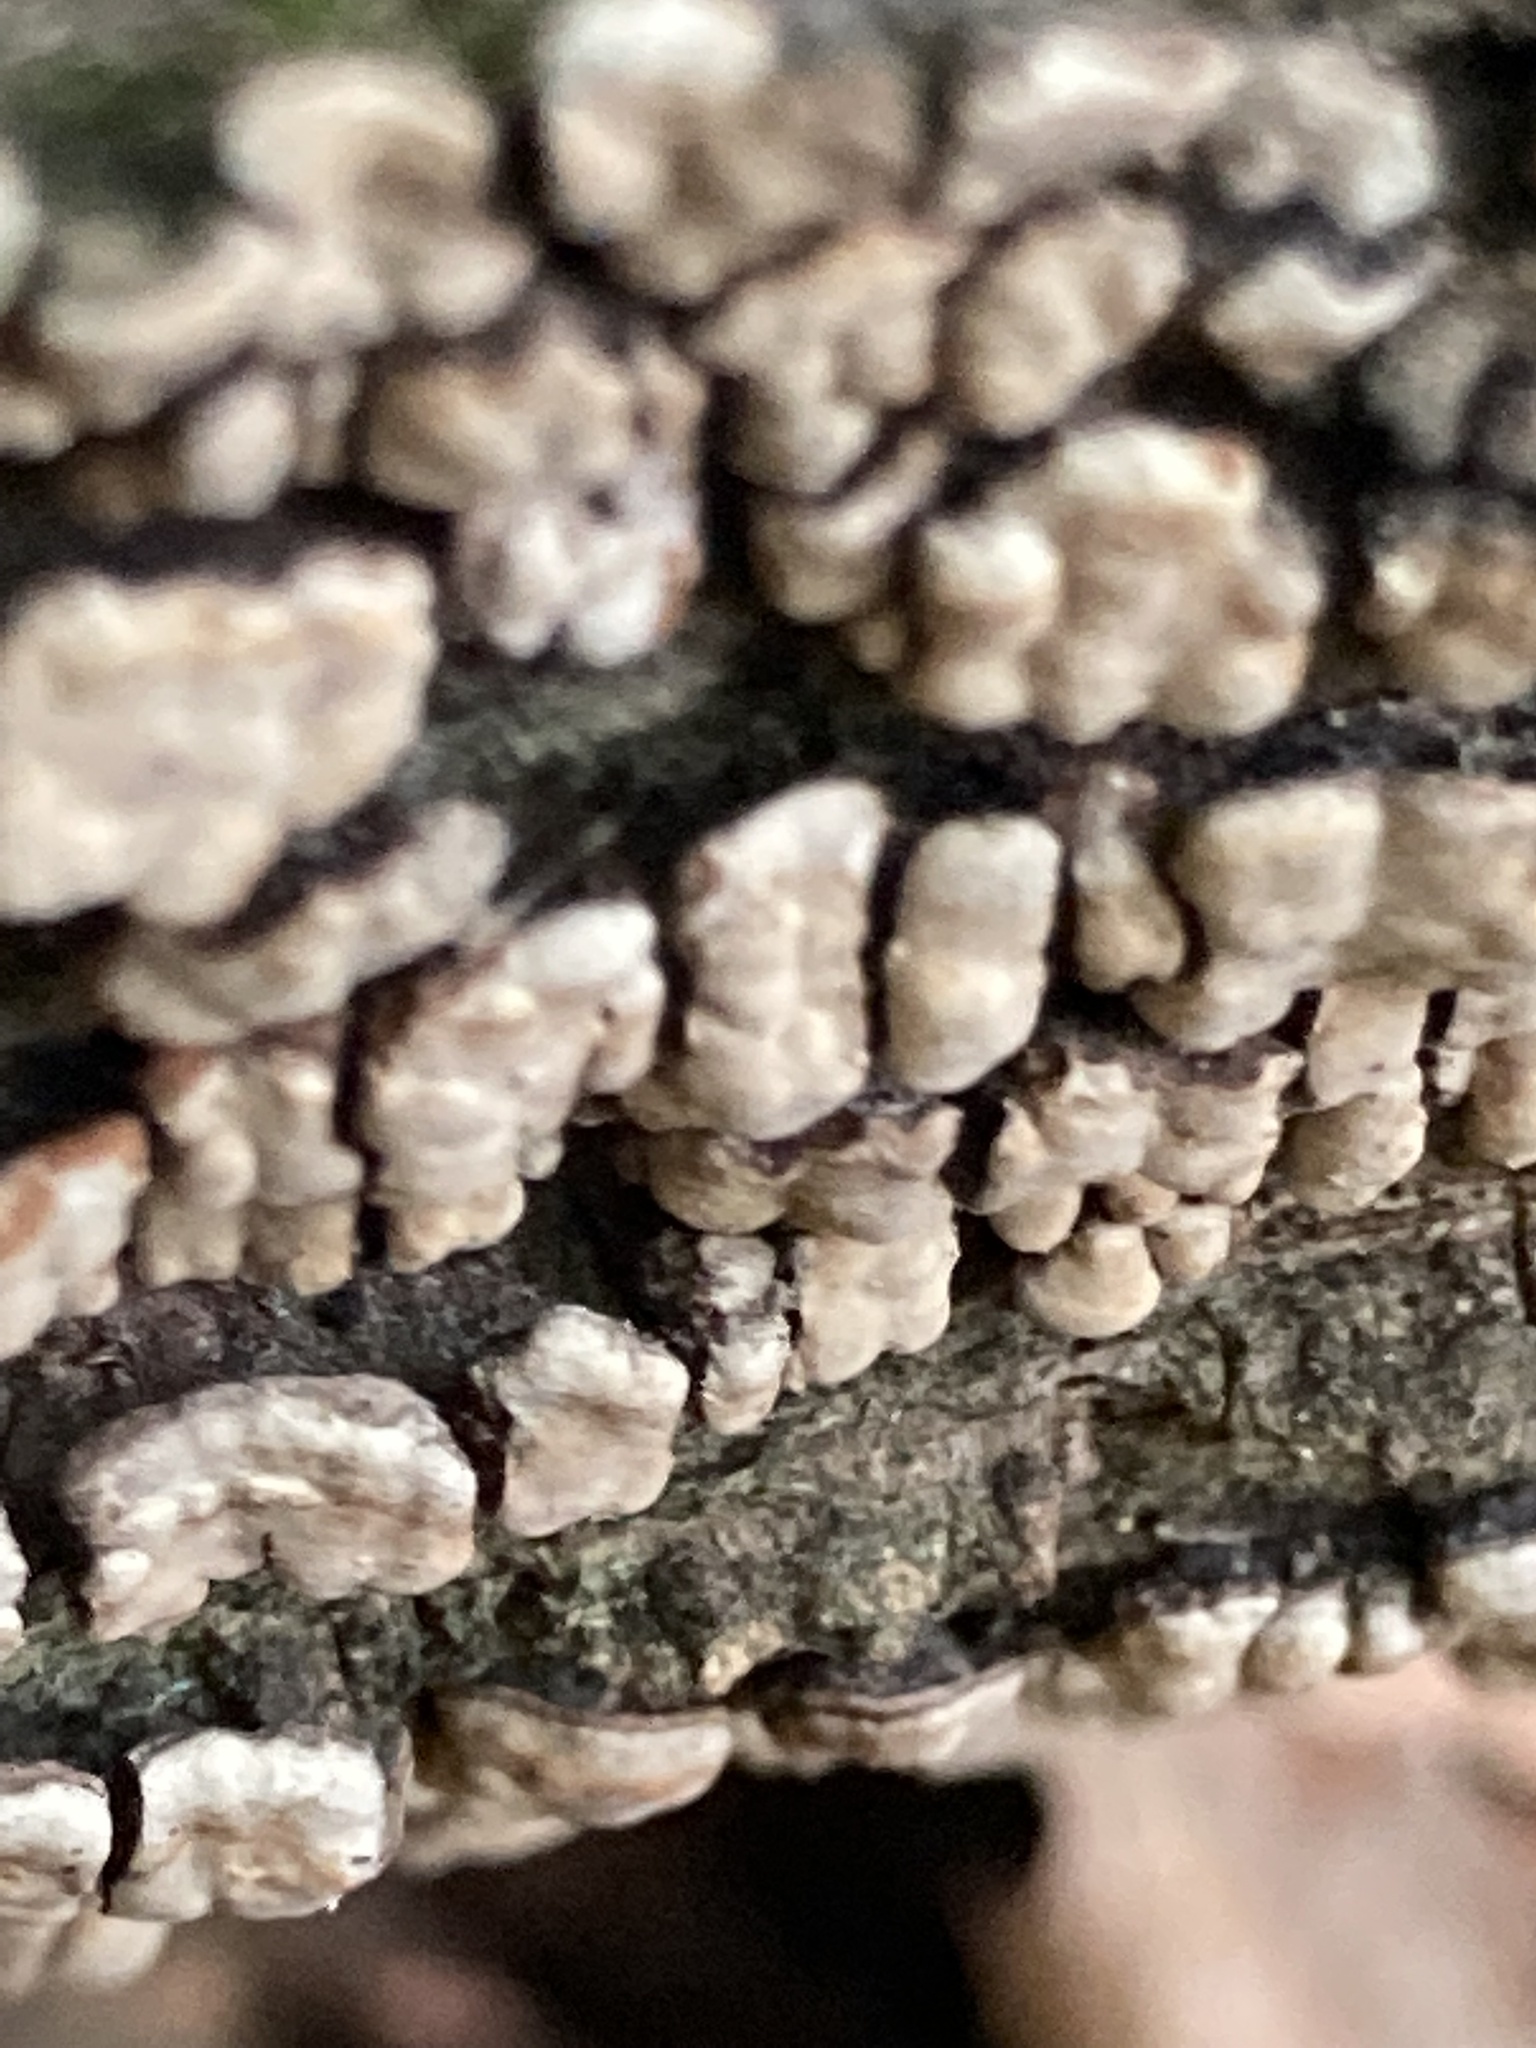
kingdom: Fungi
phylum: Basidiomycota
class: Agaricomycetes
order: Russulales
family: Stereaceae
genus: Xylobolus
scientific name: Xylobolus frustulatus
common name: Ceramic parchment
